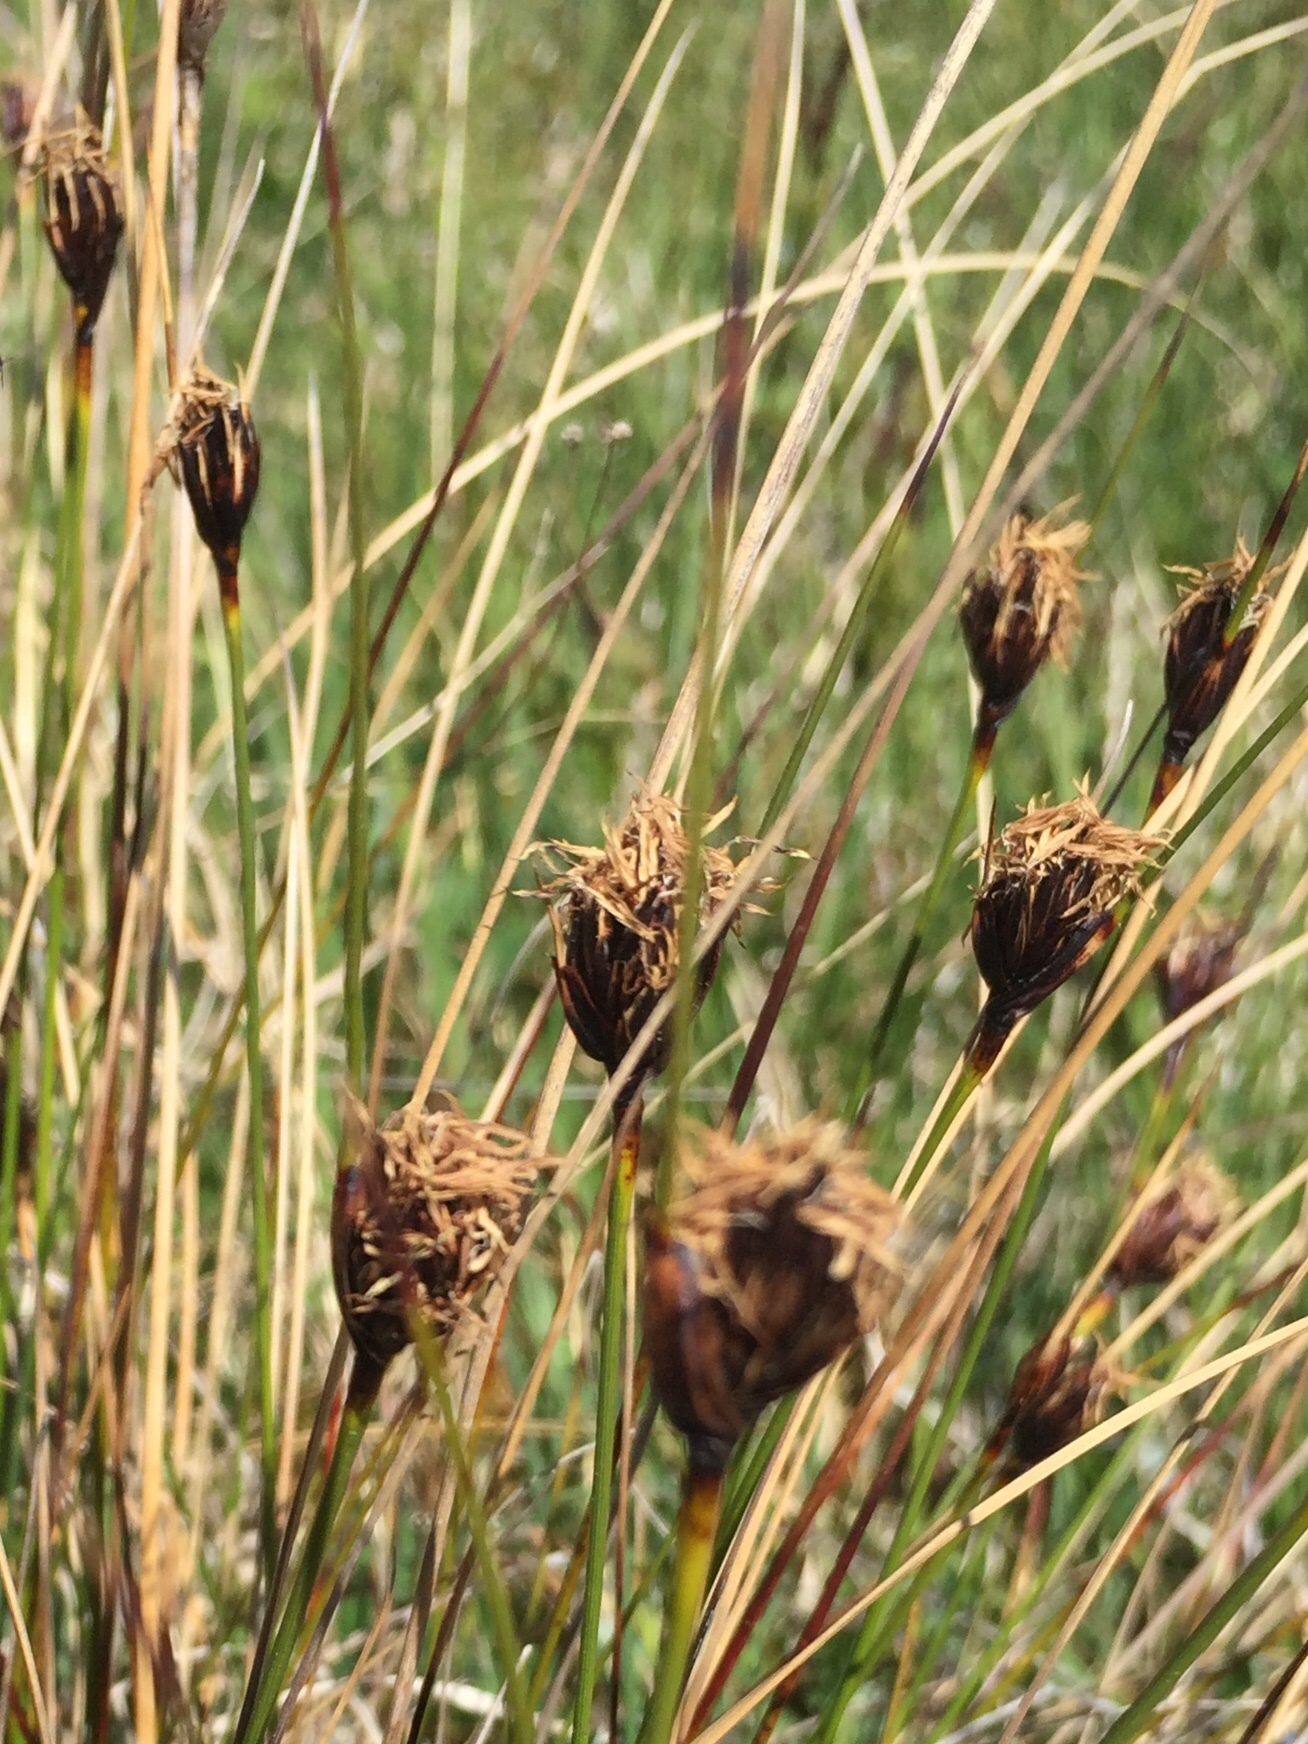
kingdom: Plantae
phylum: Tracheophyta
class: Liliopsida
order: Poales
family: Cyperaceae
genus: Schoenus
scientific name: Schoenus nigricans
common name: Black bog-rush
